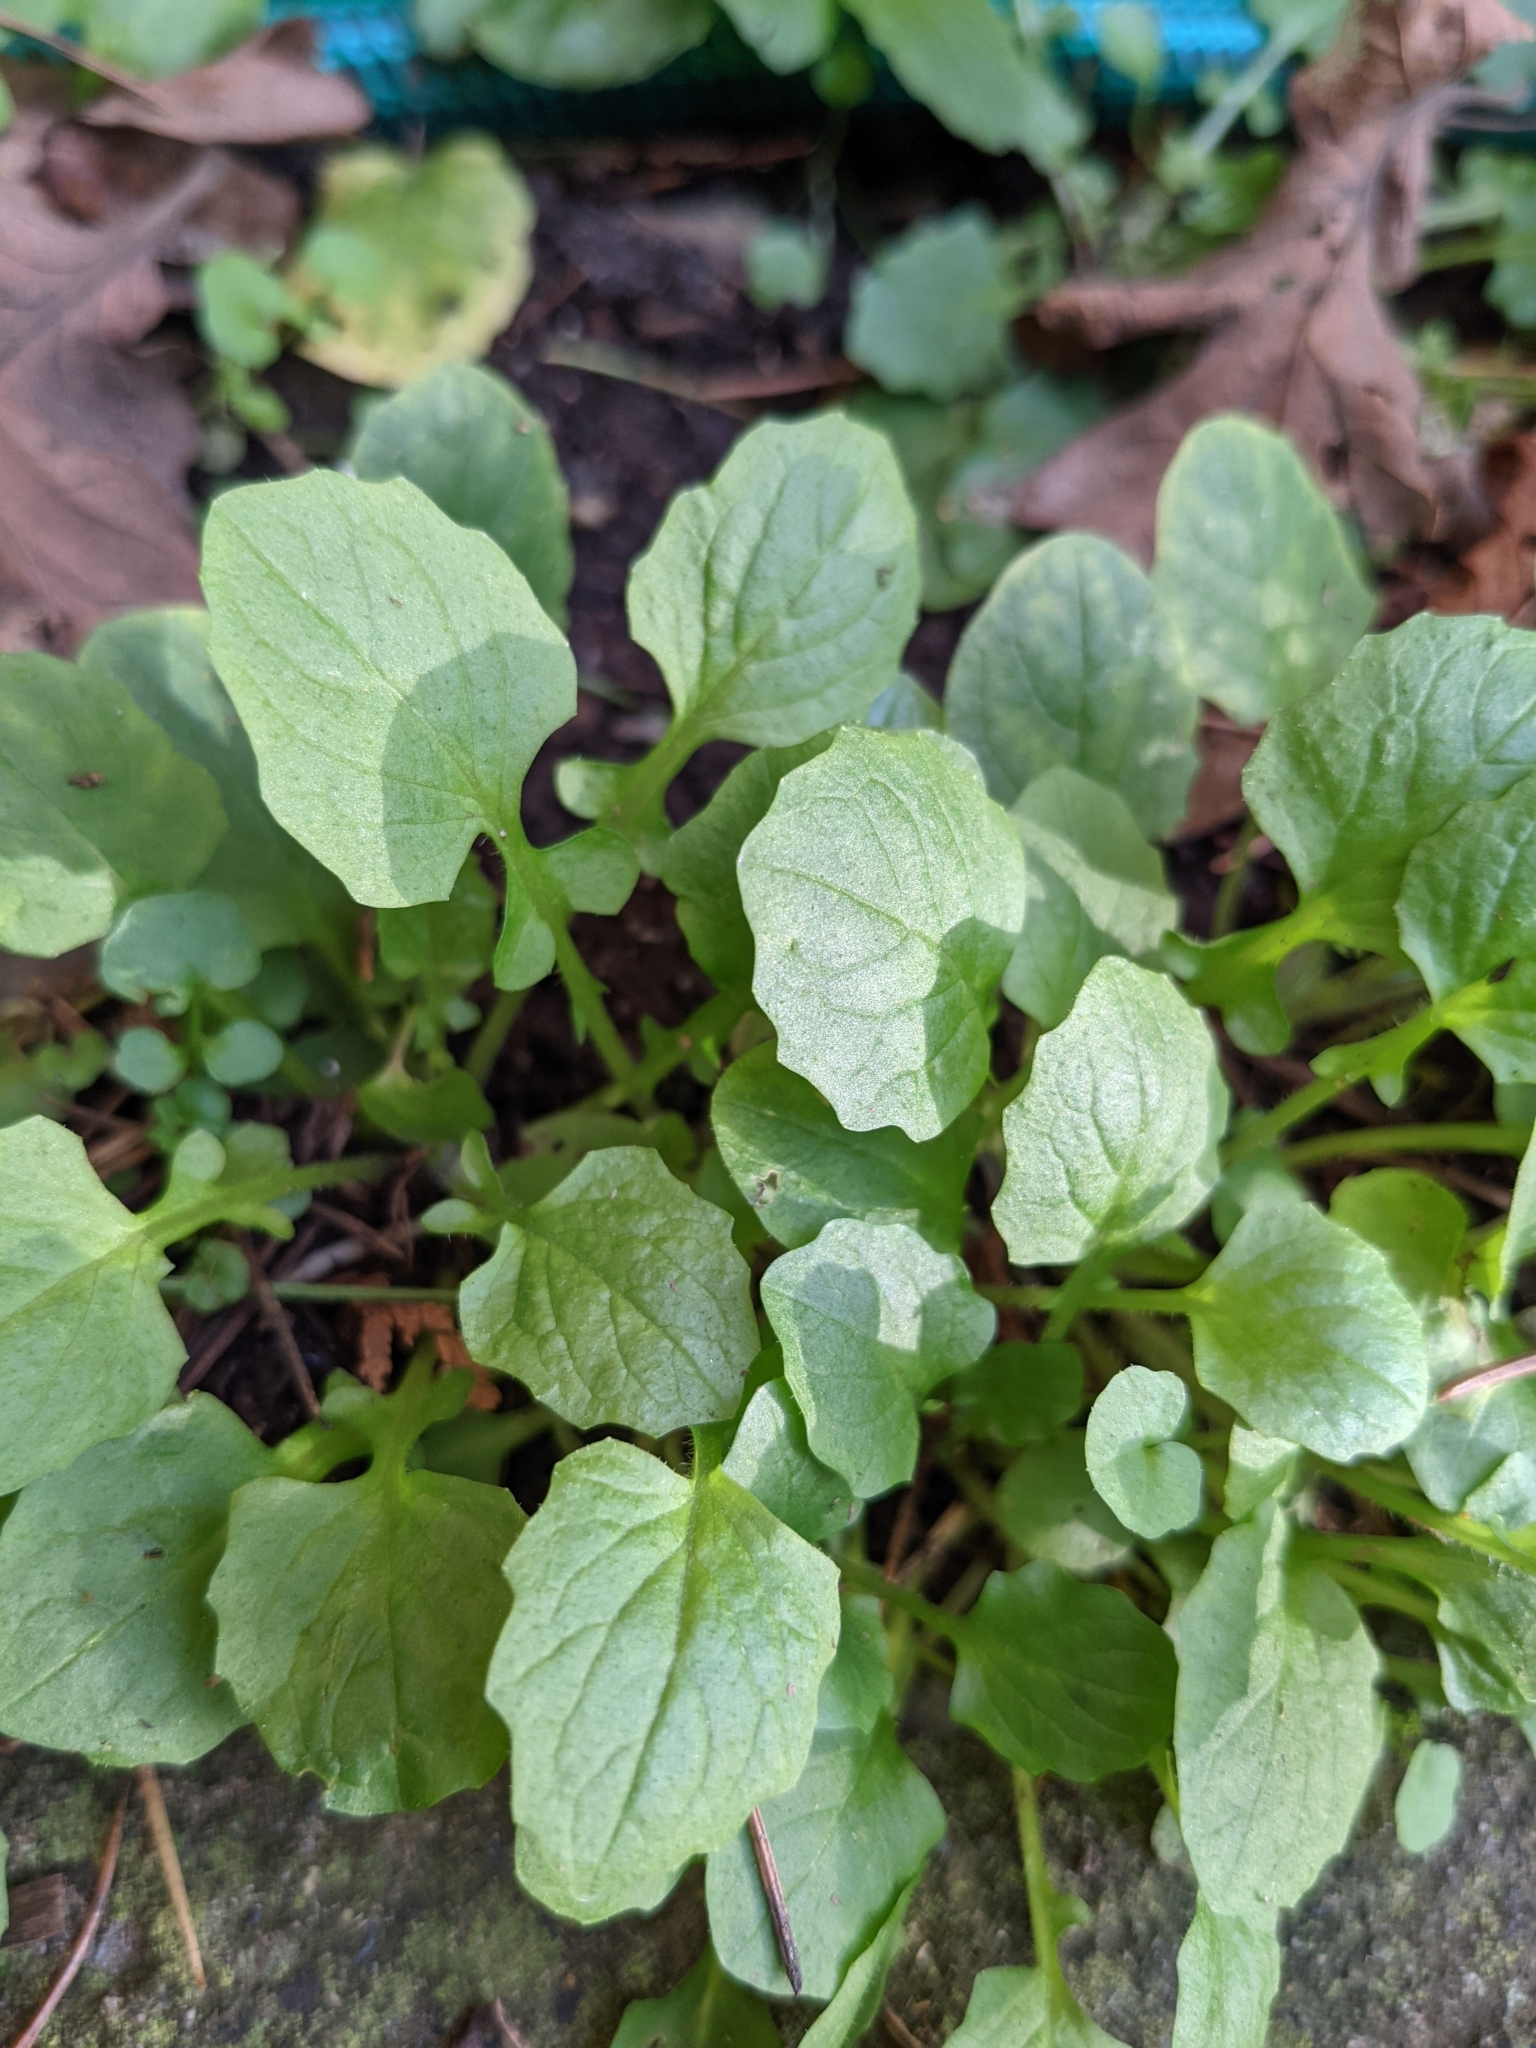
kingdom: Plantae
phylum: Tracheophyta
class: Magnoliopsida
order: Asterales
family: Asteraceae
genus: Lapsana
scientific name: Lapsana communis
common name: Nipplewort
